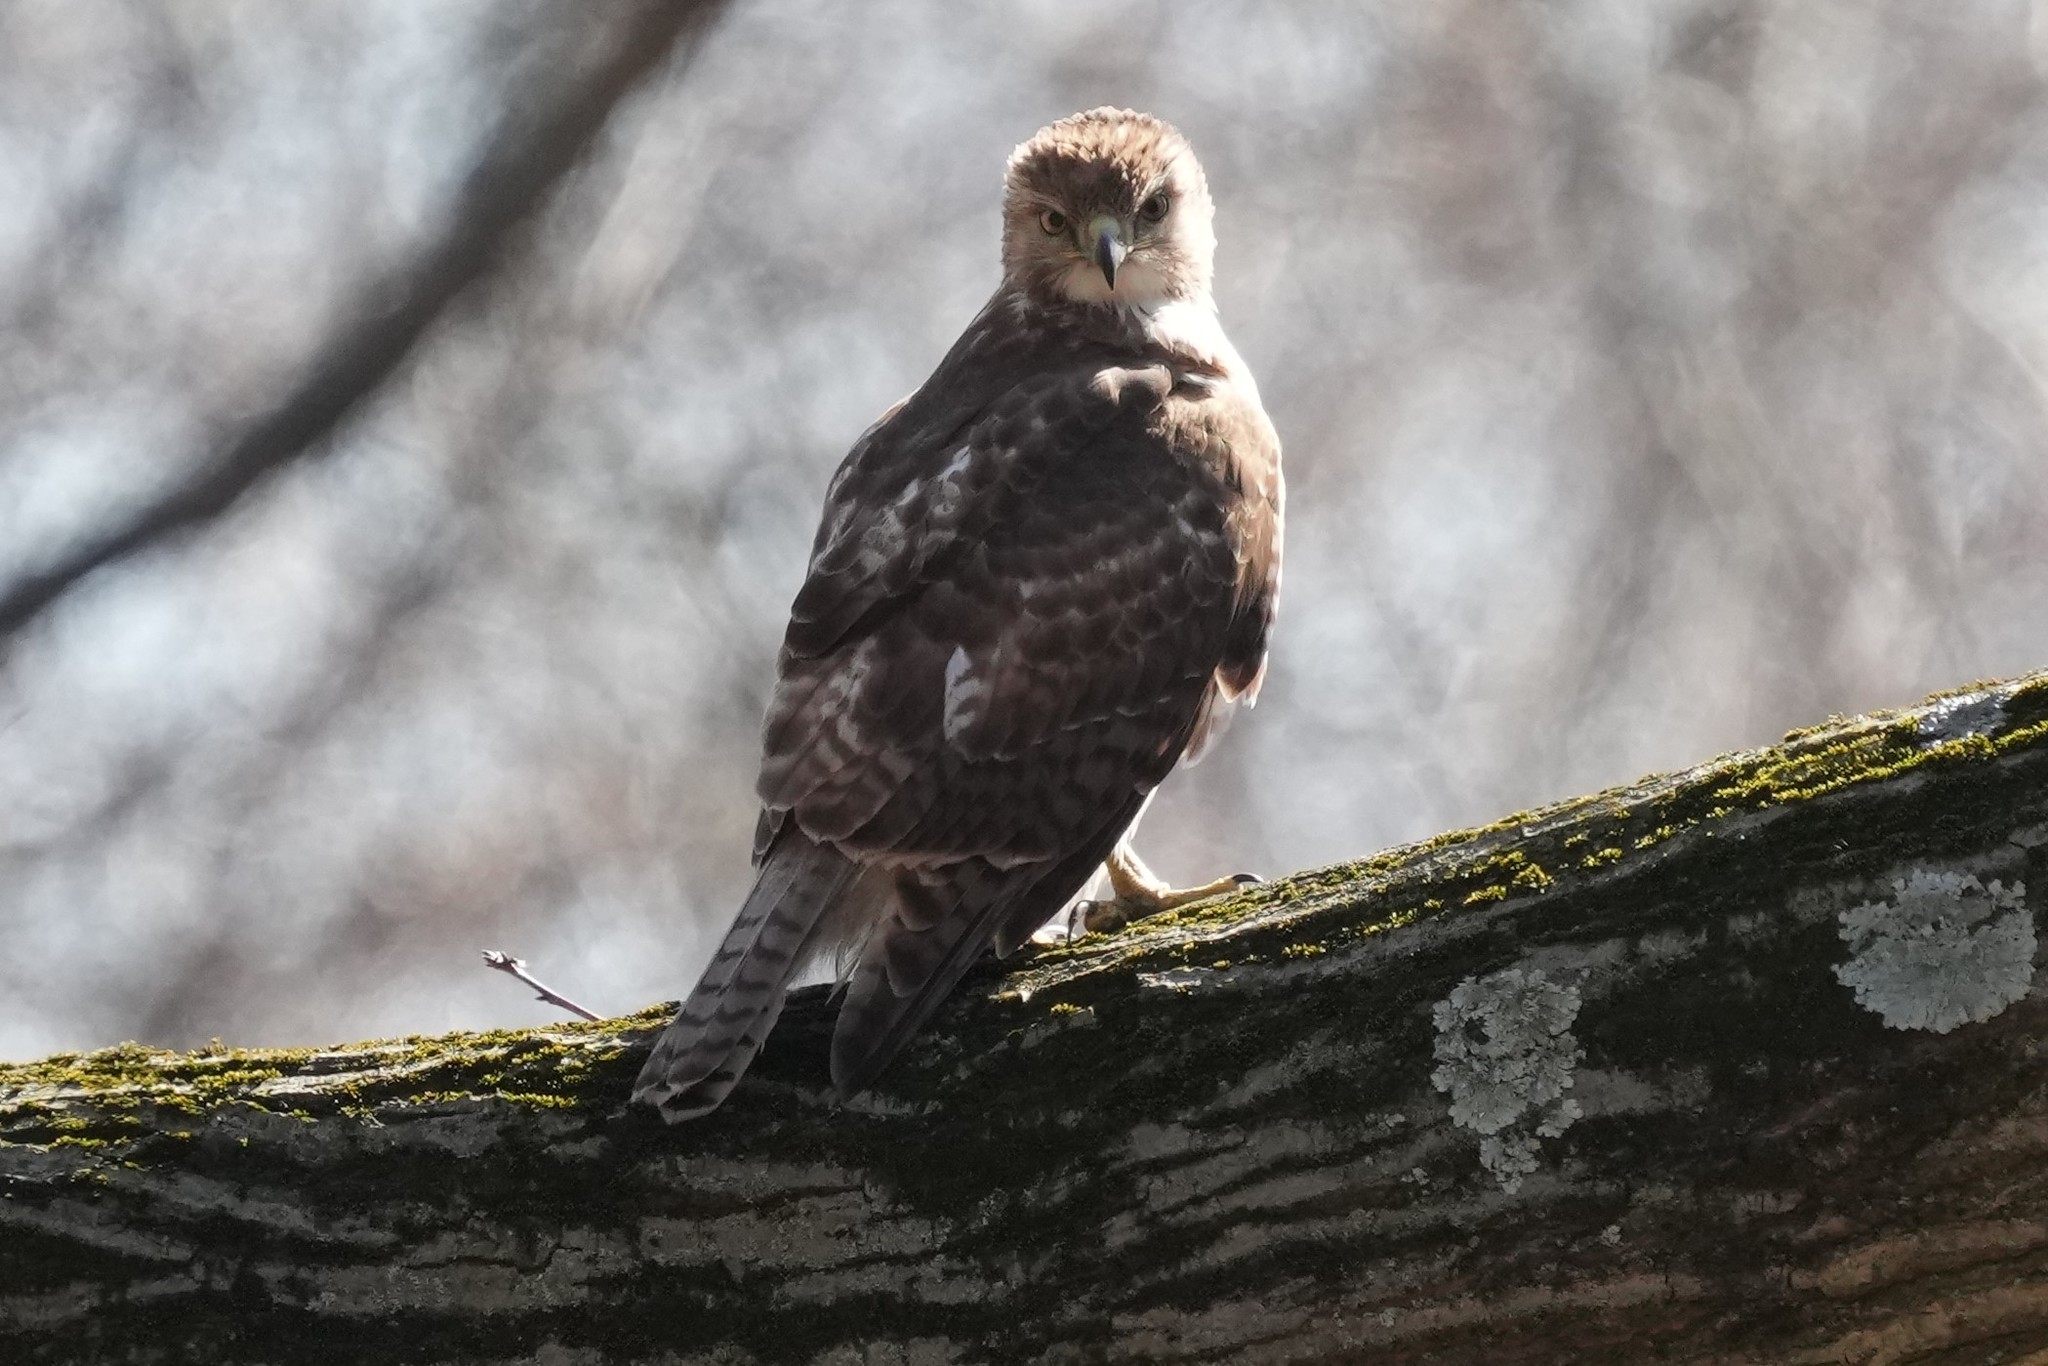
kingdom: Animalia
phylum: Chordata
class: Aves
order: Accipitriformes
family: Accipitridae
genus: Buteo
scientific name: Buteo jamaicensis
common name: Red-tailed hawk
